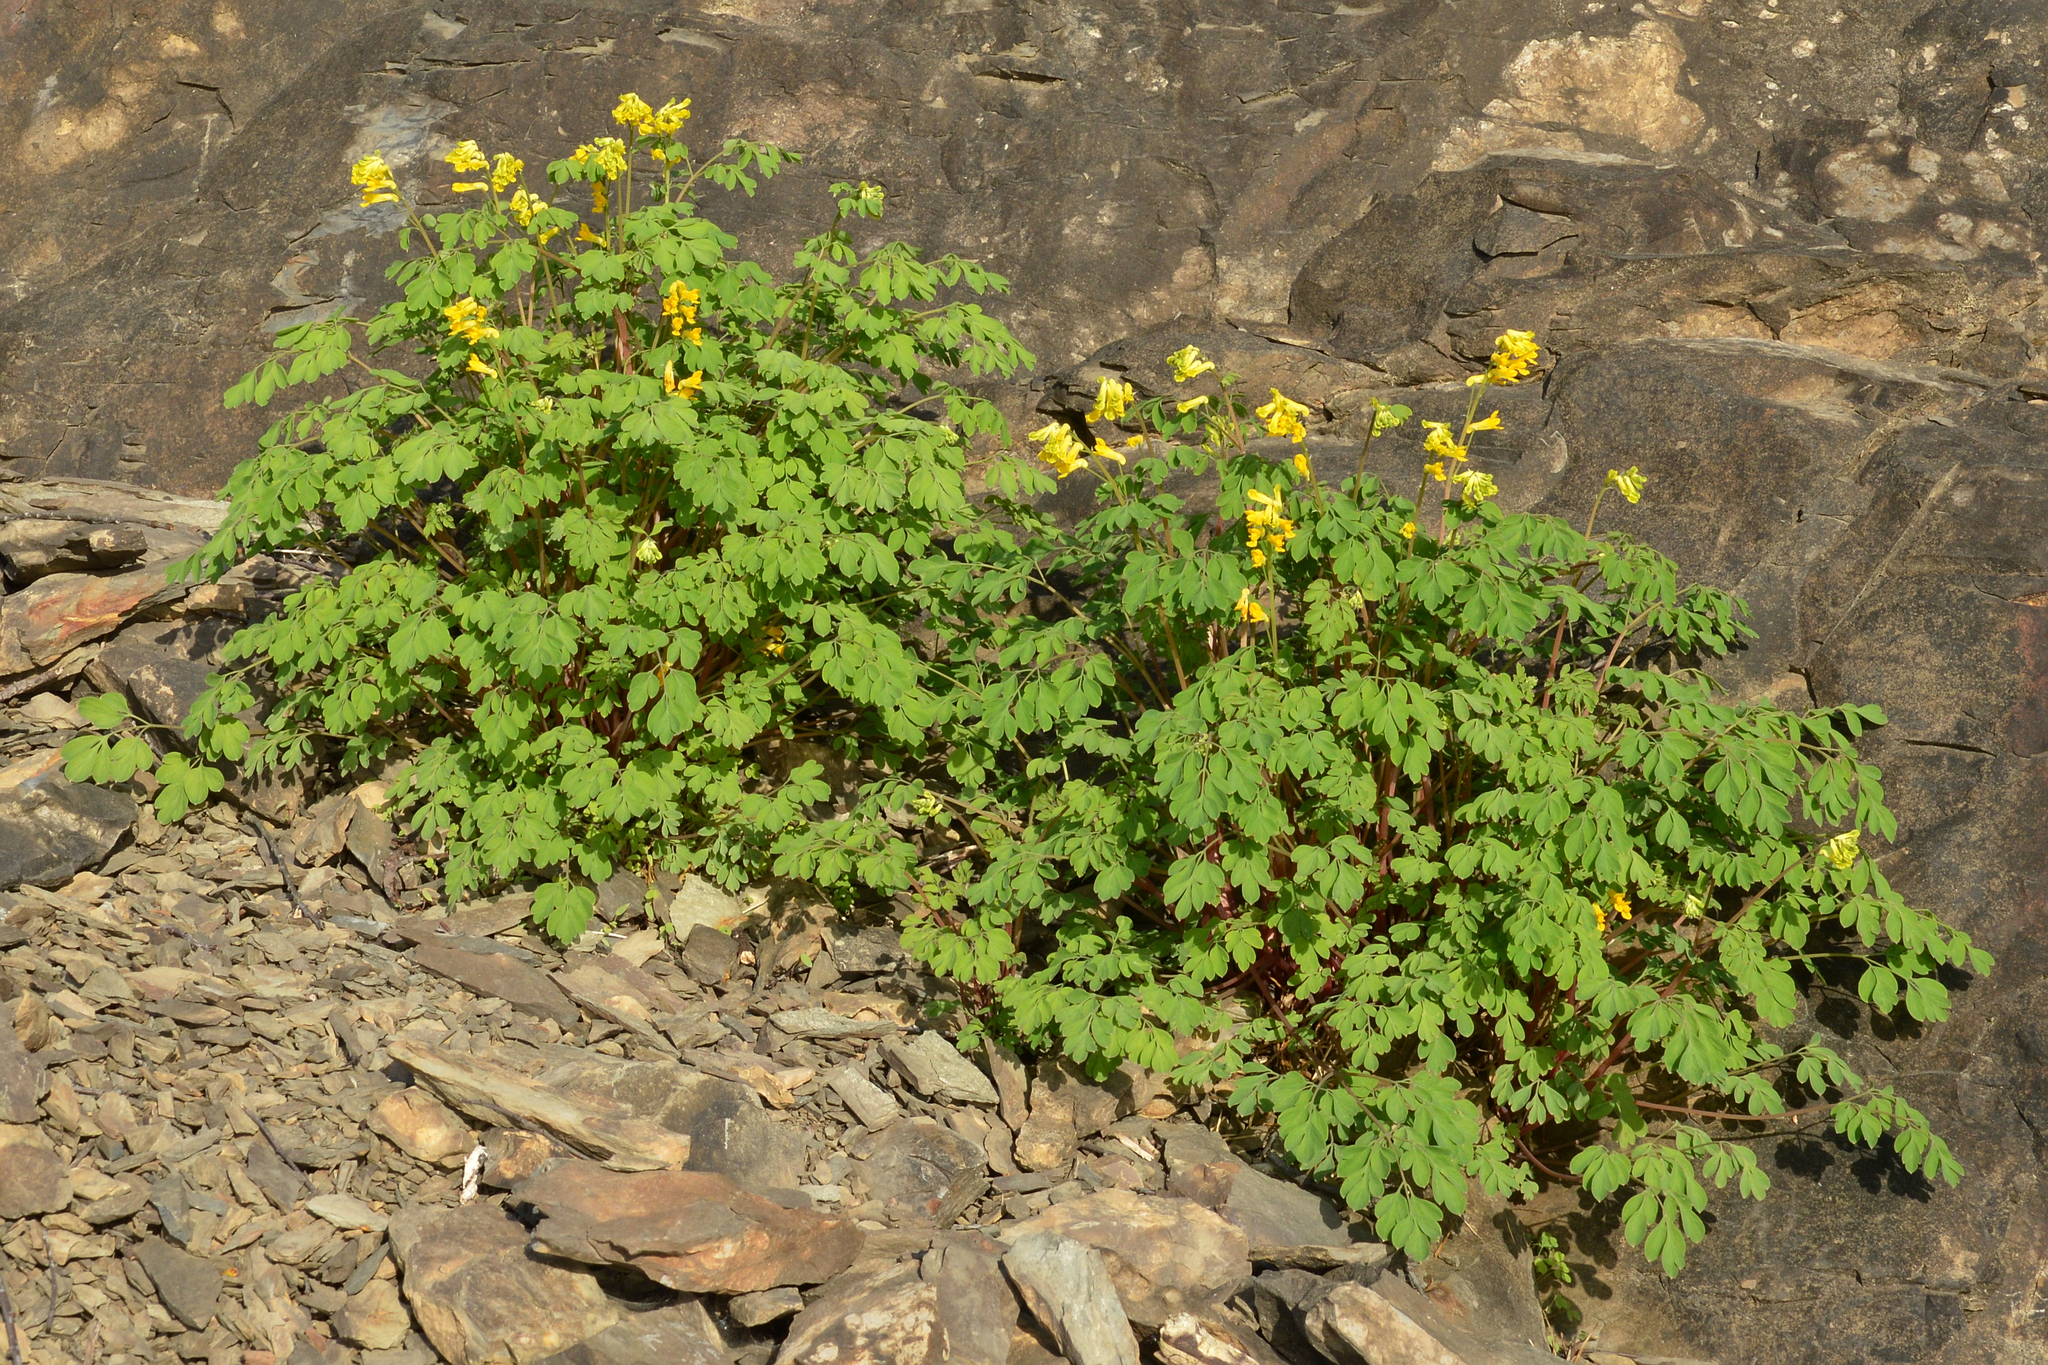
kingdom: Plantae
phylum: Tracheophyta
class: Magnoliopsida
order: Ranunculales
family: Papaveraceae
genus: Pseudofumaria
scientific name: Pseudofumaria lutea
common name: Yellow corydalis
